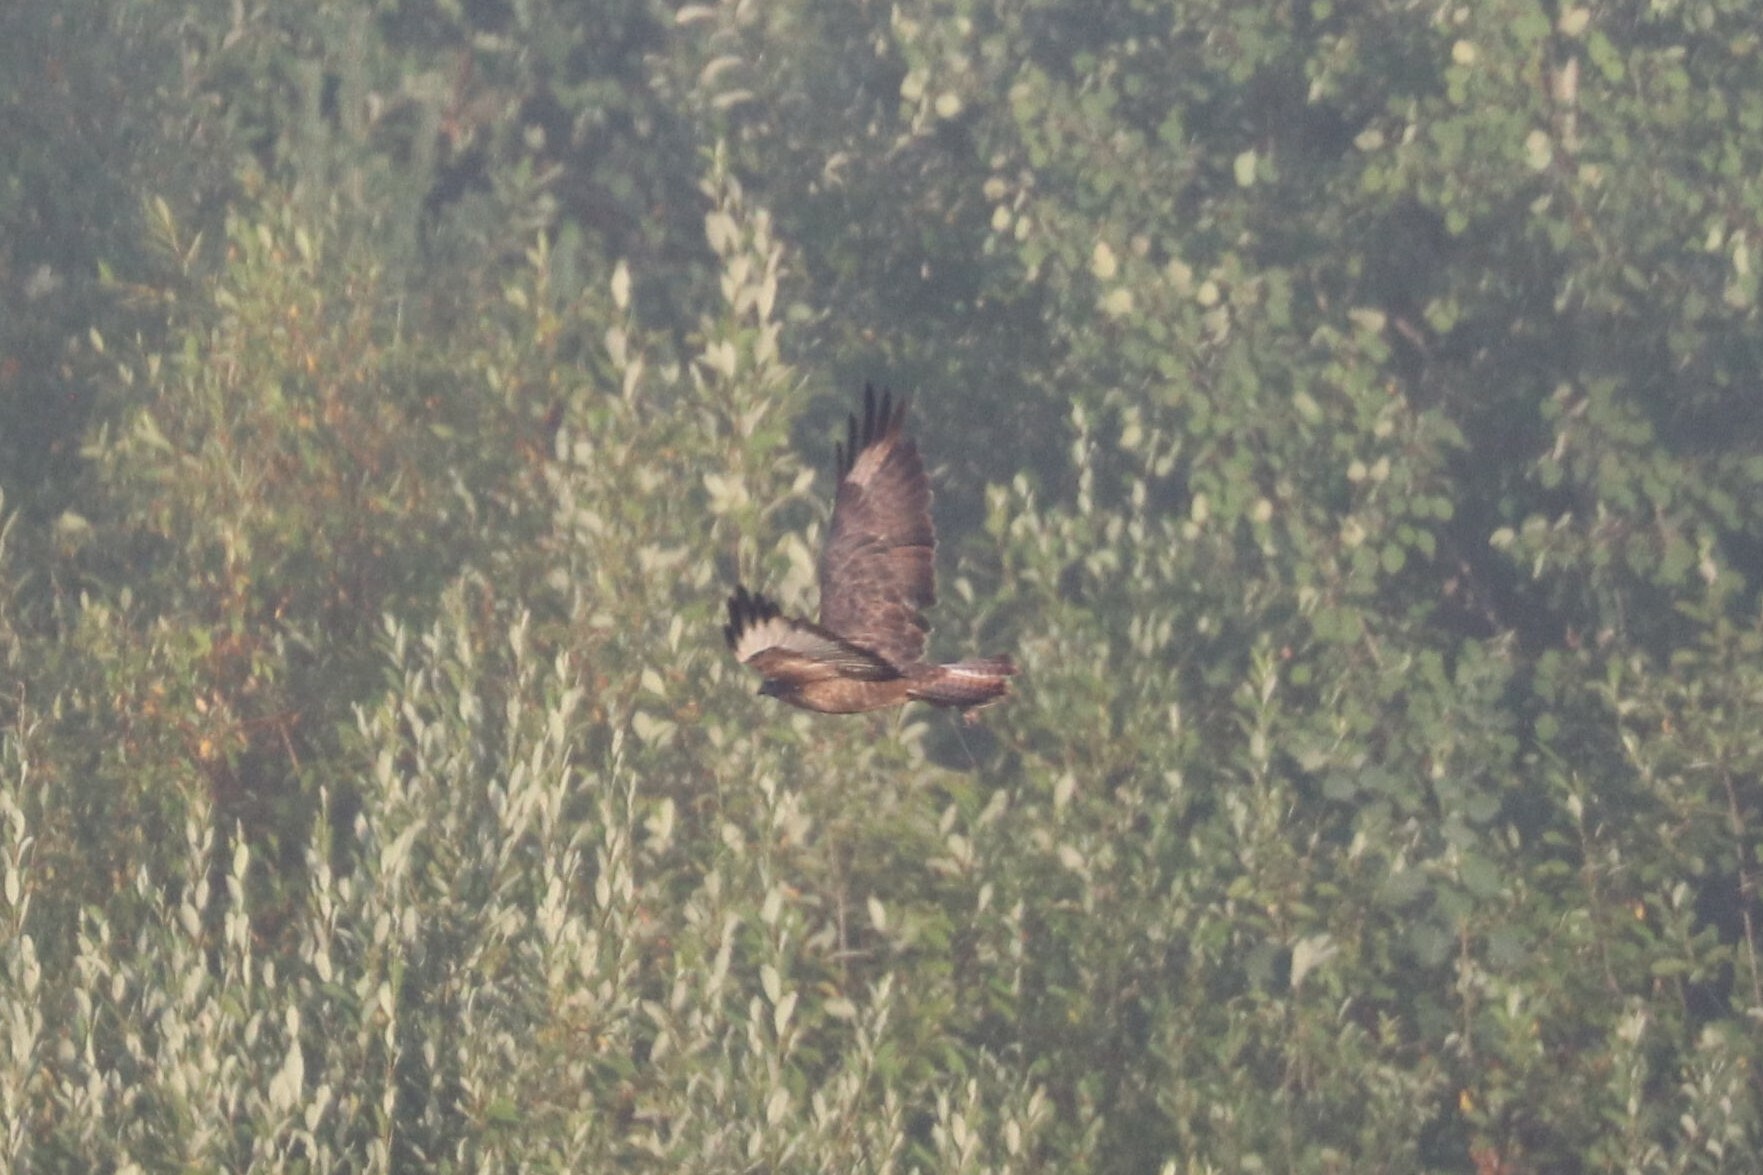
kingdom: Animalia
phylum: Chordata
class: Aves
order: Accipitriformes
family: Accipitridae
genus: Buteo
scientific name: Buteo buteo
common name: Common buzzard
